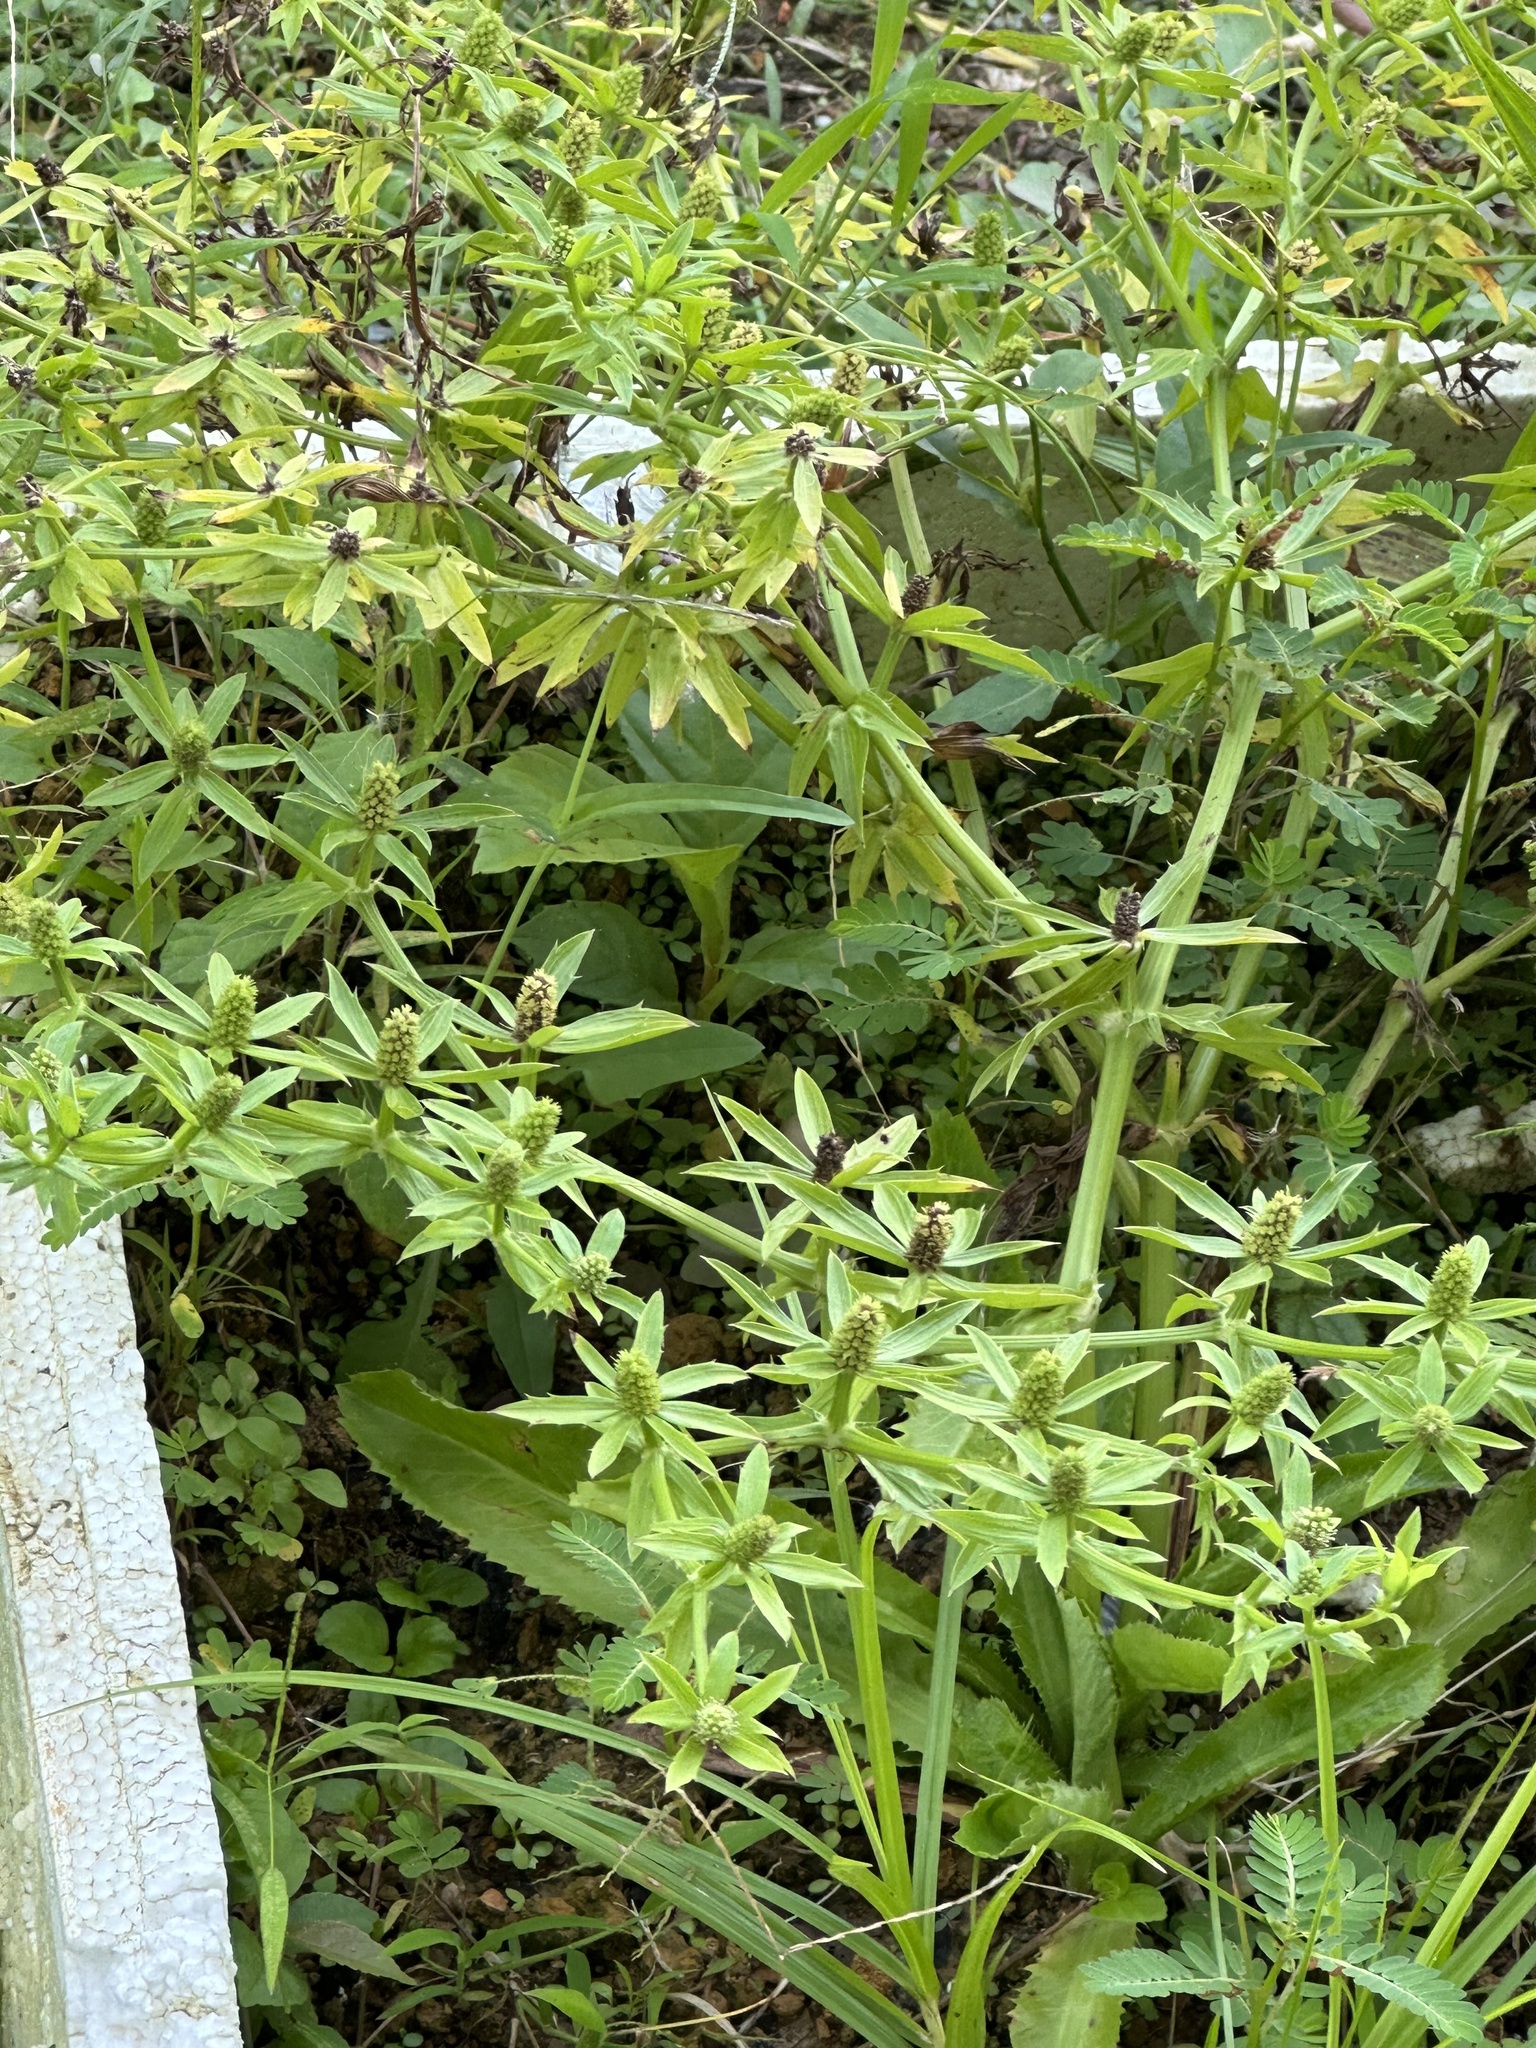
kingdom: Plantae
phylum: Tracheophyta
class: Magnoliopsida
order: Apiales
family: Apiaceae
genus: Eryngium
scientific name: Eryngium foetidum
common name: Fitweed
